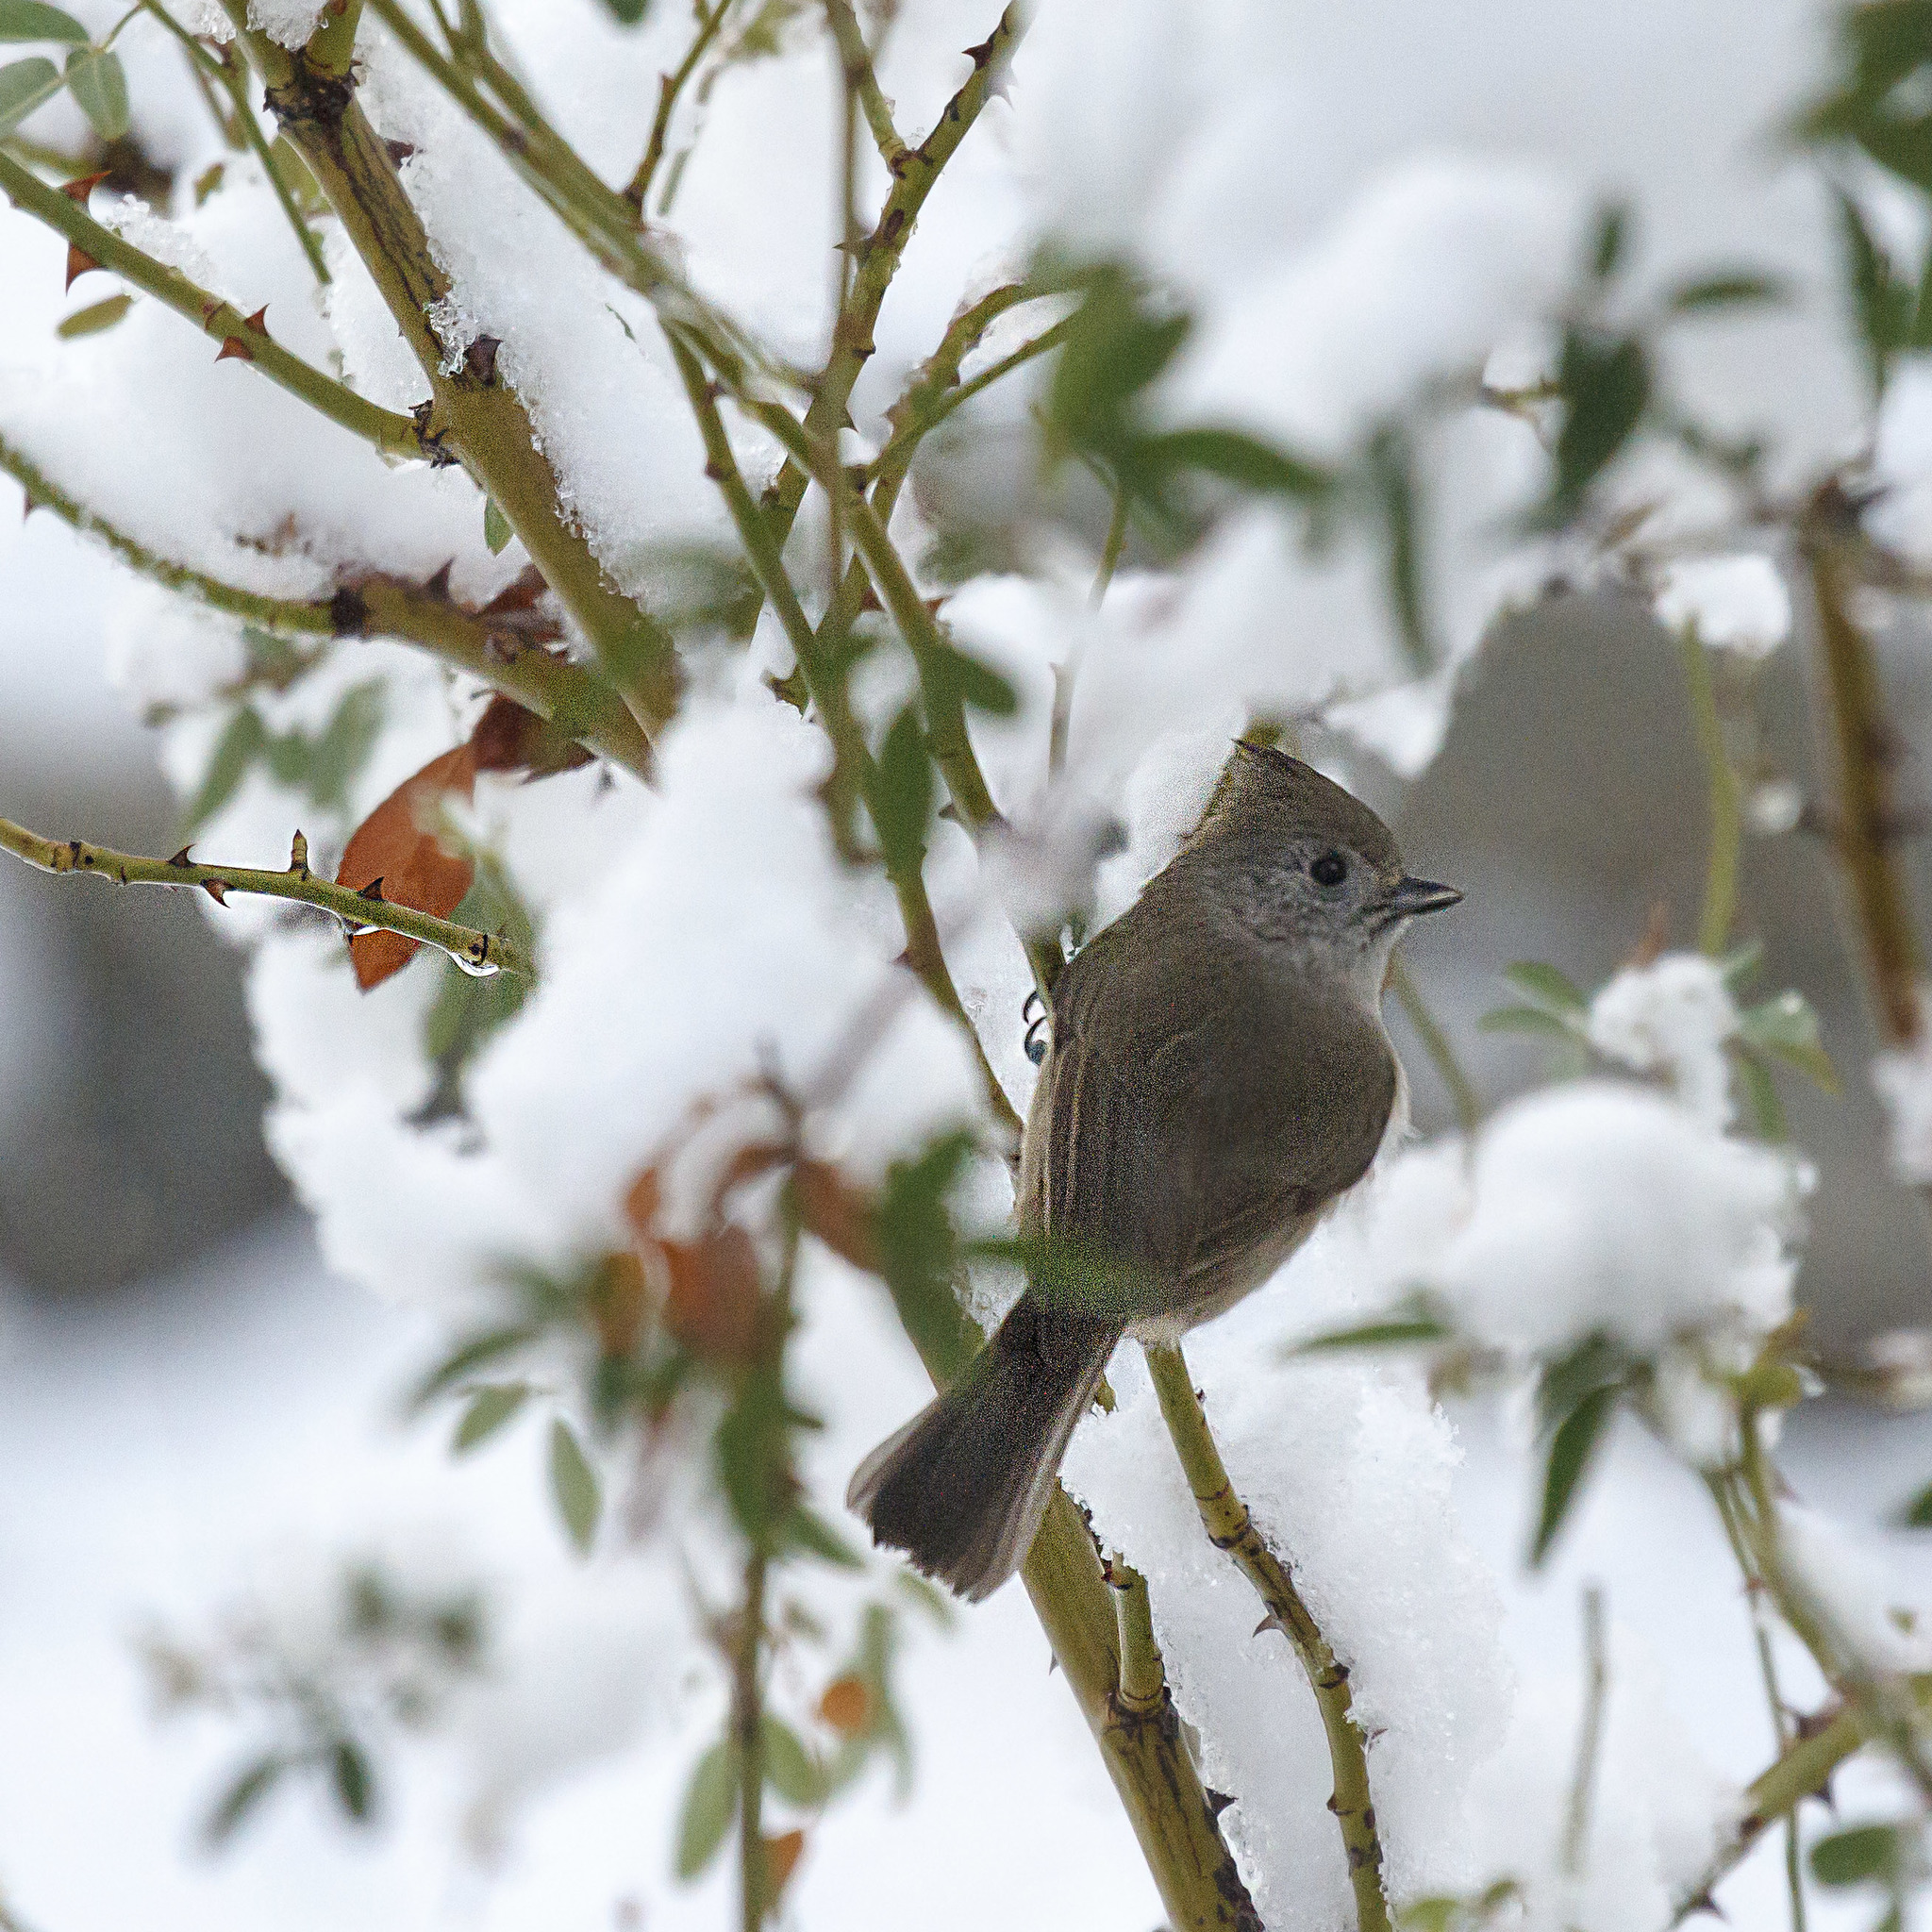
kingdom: Animalia
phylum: Chordata
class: Aves
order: Passeriformes
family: Paridae
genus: Baeolophus
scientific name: Baeolophus inornatus
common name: Oak titmouse
